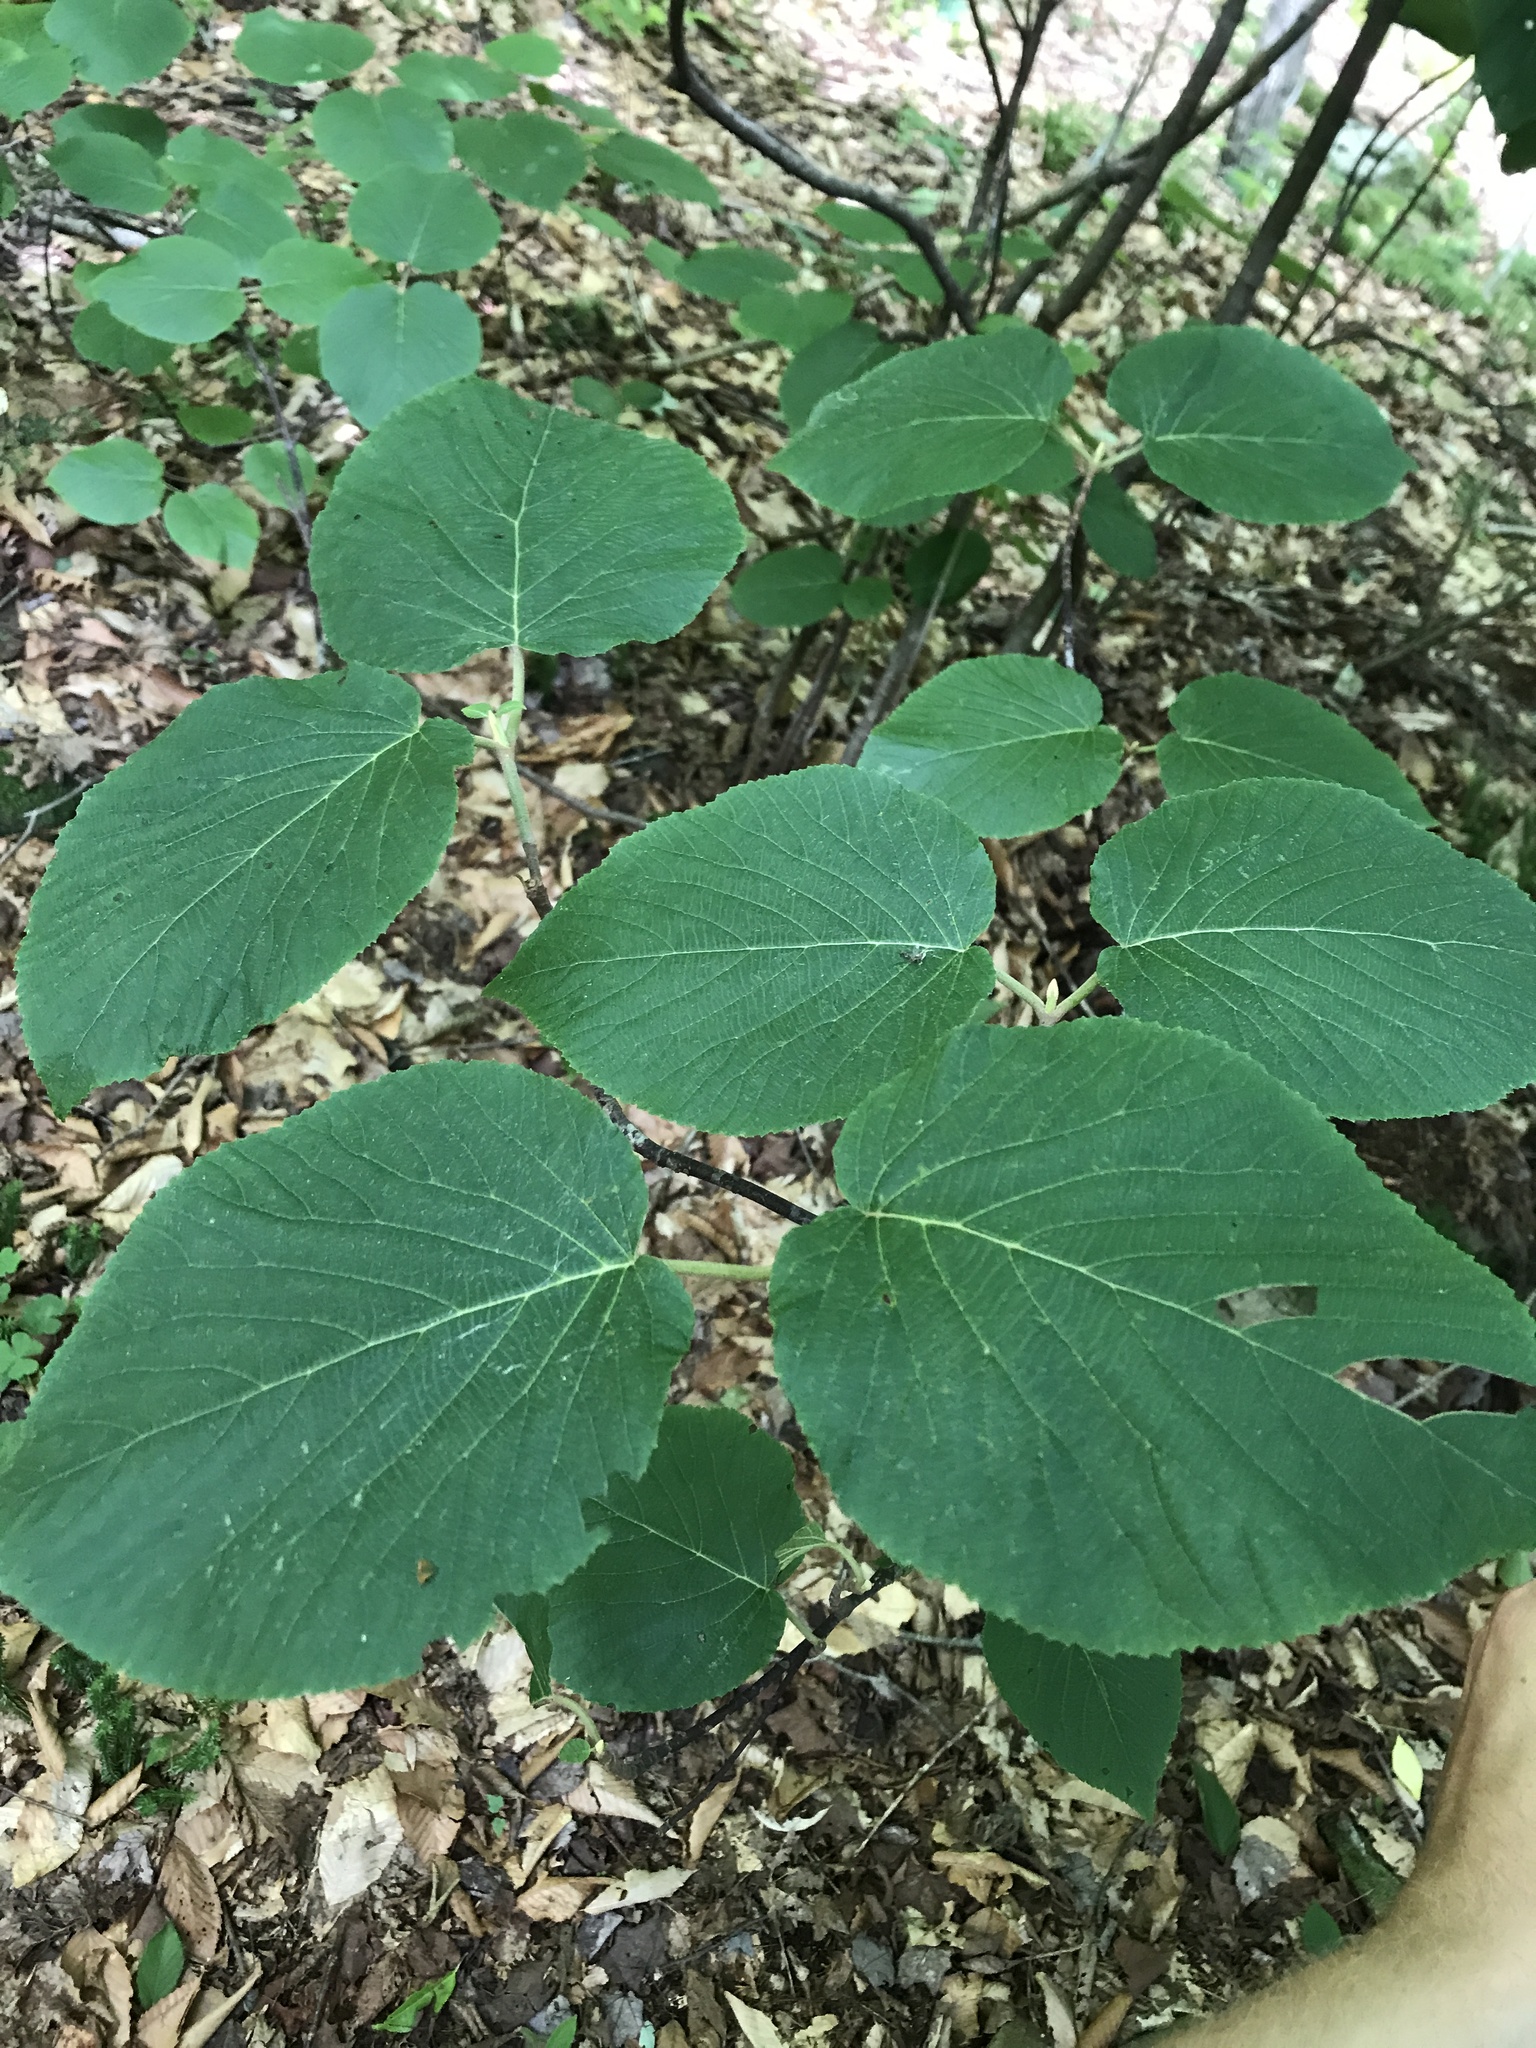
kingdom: Plantae
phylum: Tracheophyta
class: Magnoliopsida
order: Dipsacales
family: Viburnaceae
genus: Viburnum
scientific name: Viburnum lantanoides
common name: Hobblebush
